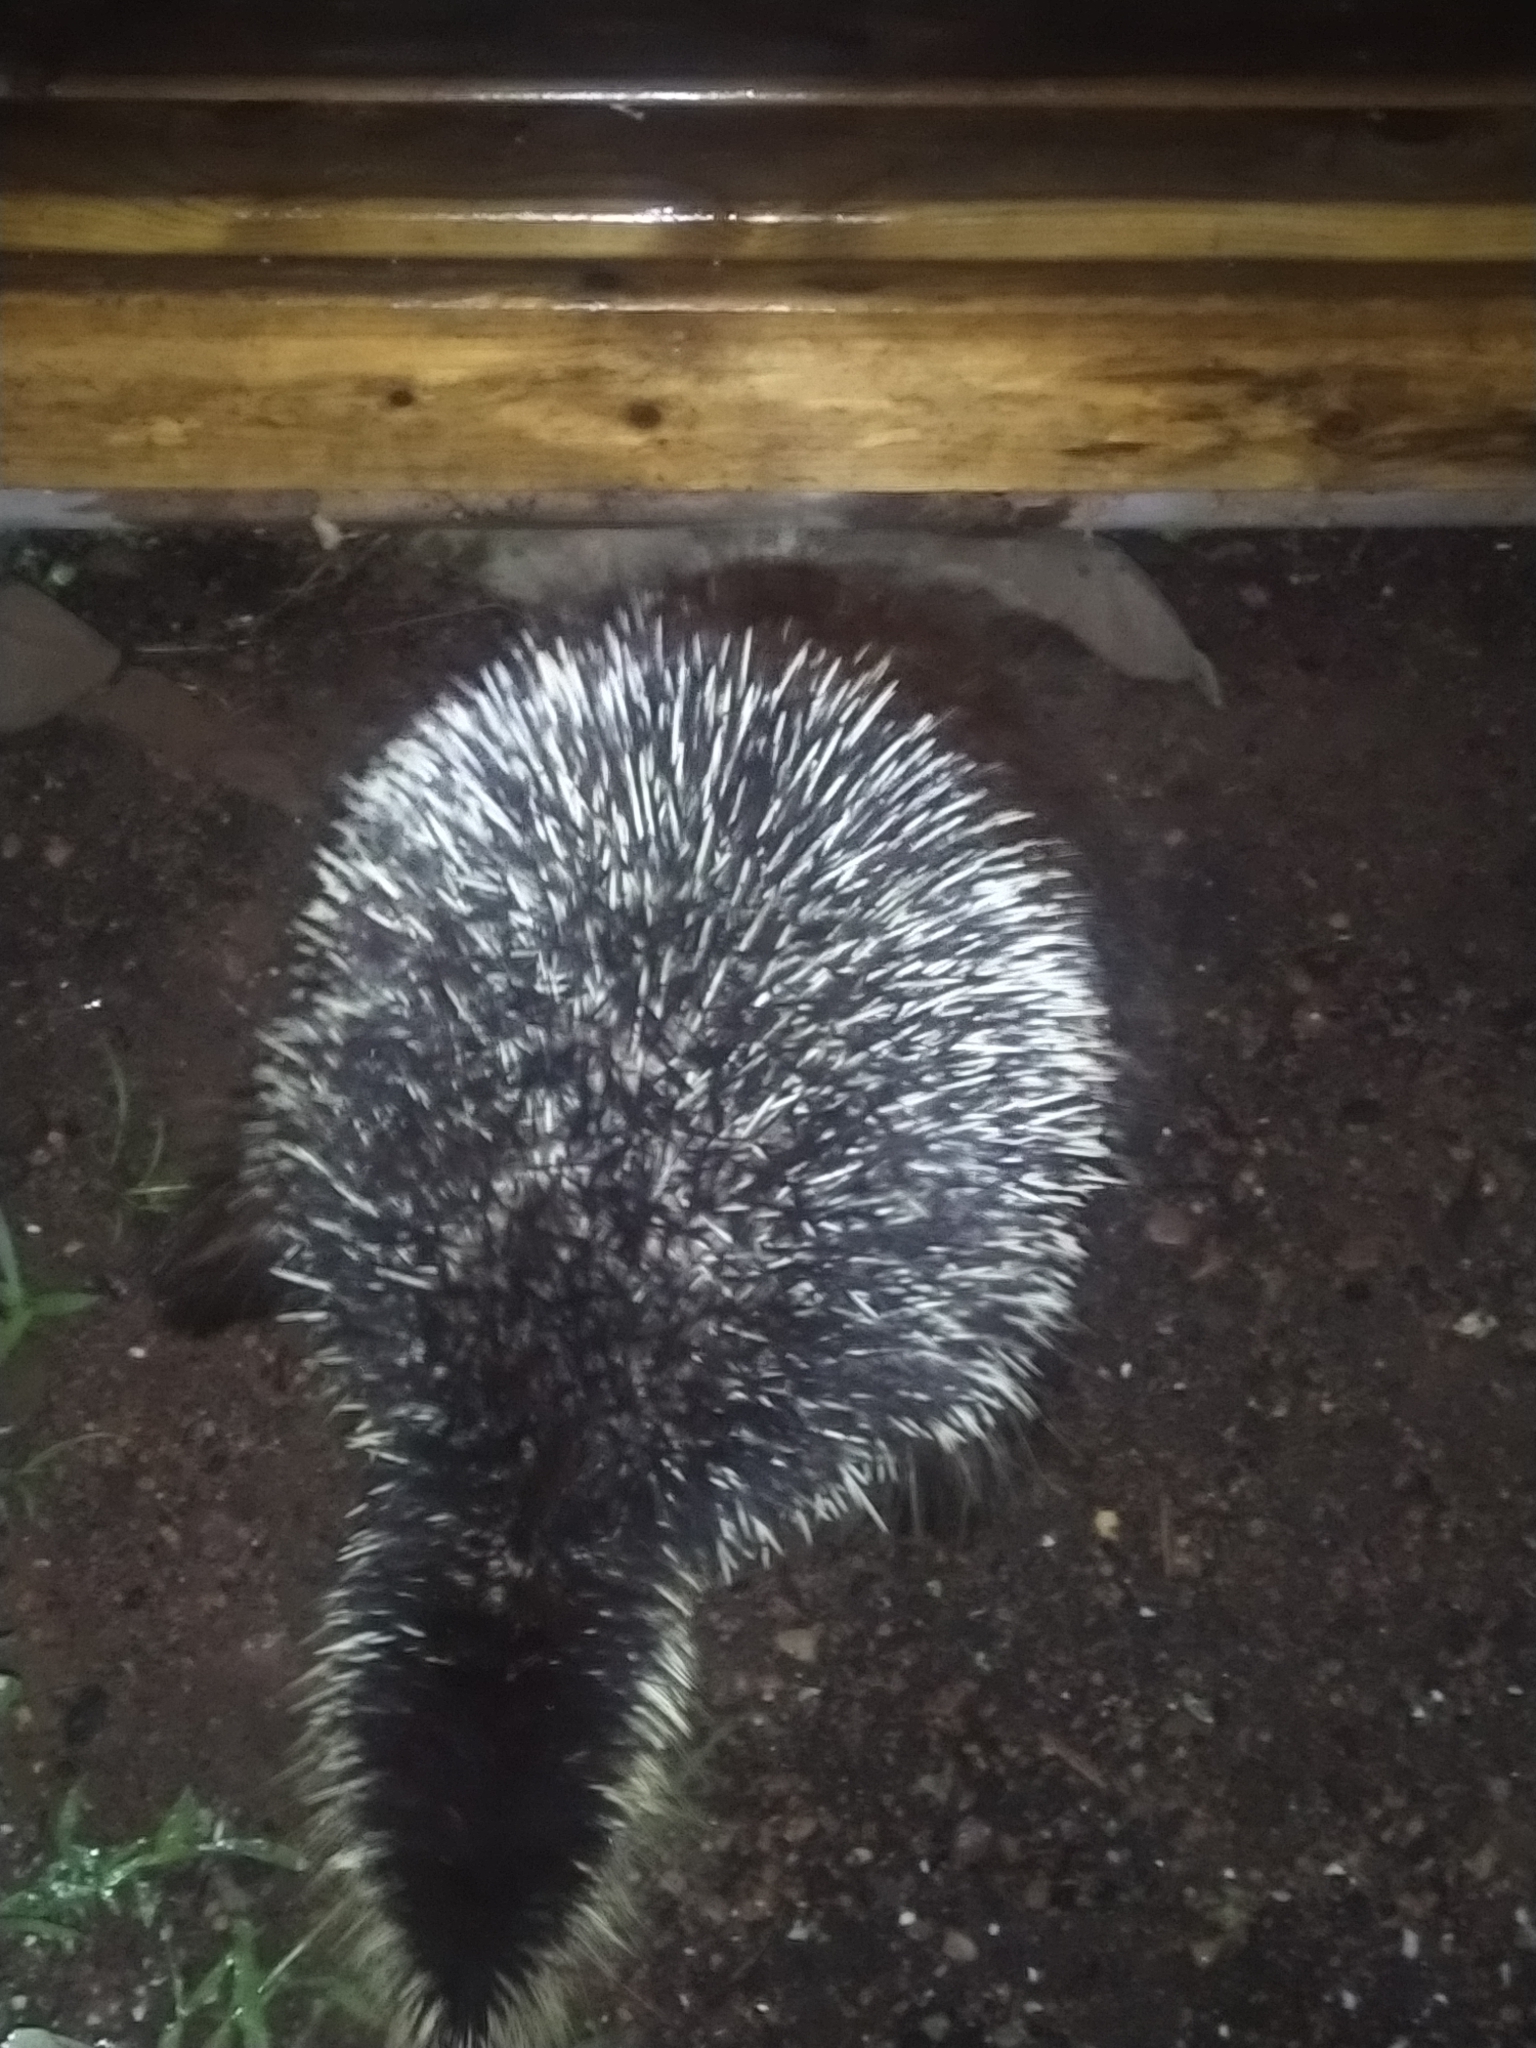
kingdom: Animalia
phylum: Chordata
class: Mammalia
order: Rodentia
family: Erethizontidae
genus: Erethizon
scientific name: Erethizon dorsatus
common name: North american porcupine
